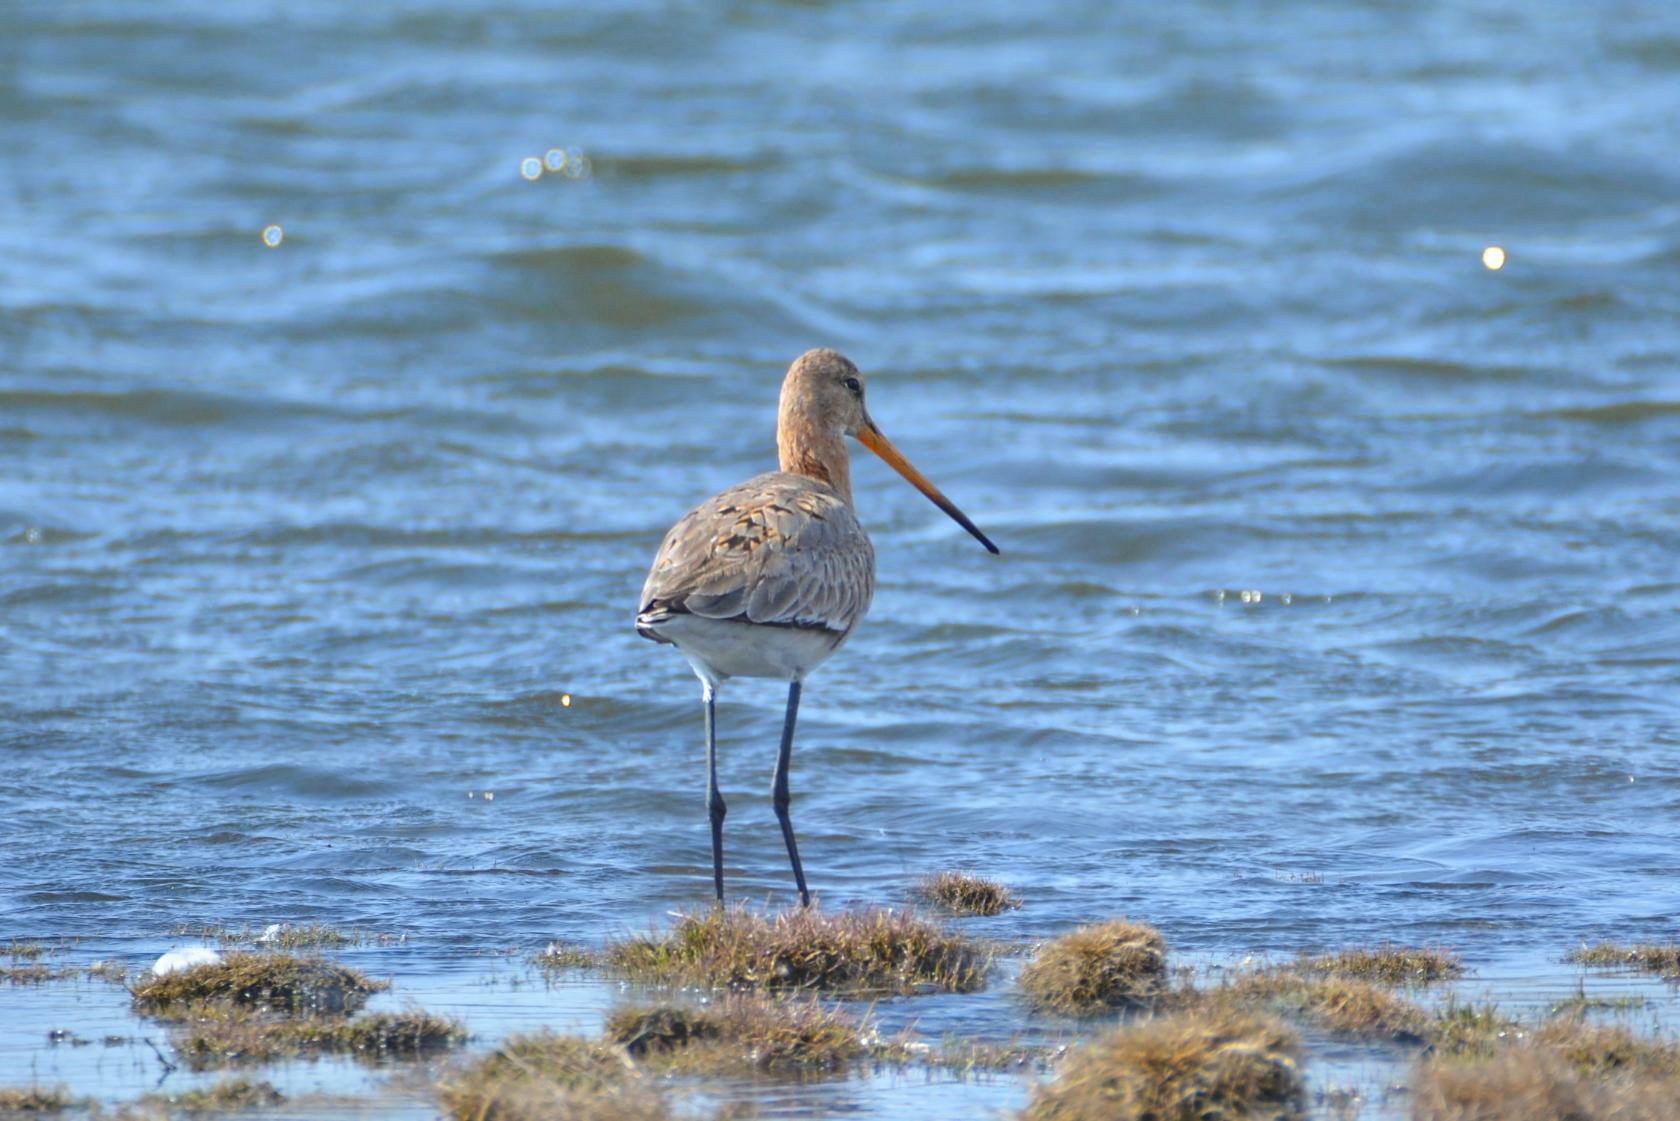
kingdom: Animalia
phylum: Chordata
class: Aves
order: Charadriiformes
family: Scolopacidae
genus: Limosa
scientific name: Limosa limosa
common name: Black-tailed godwit
